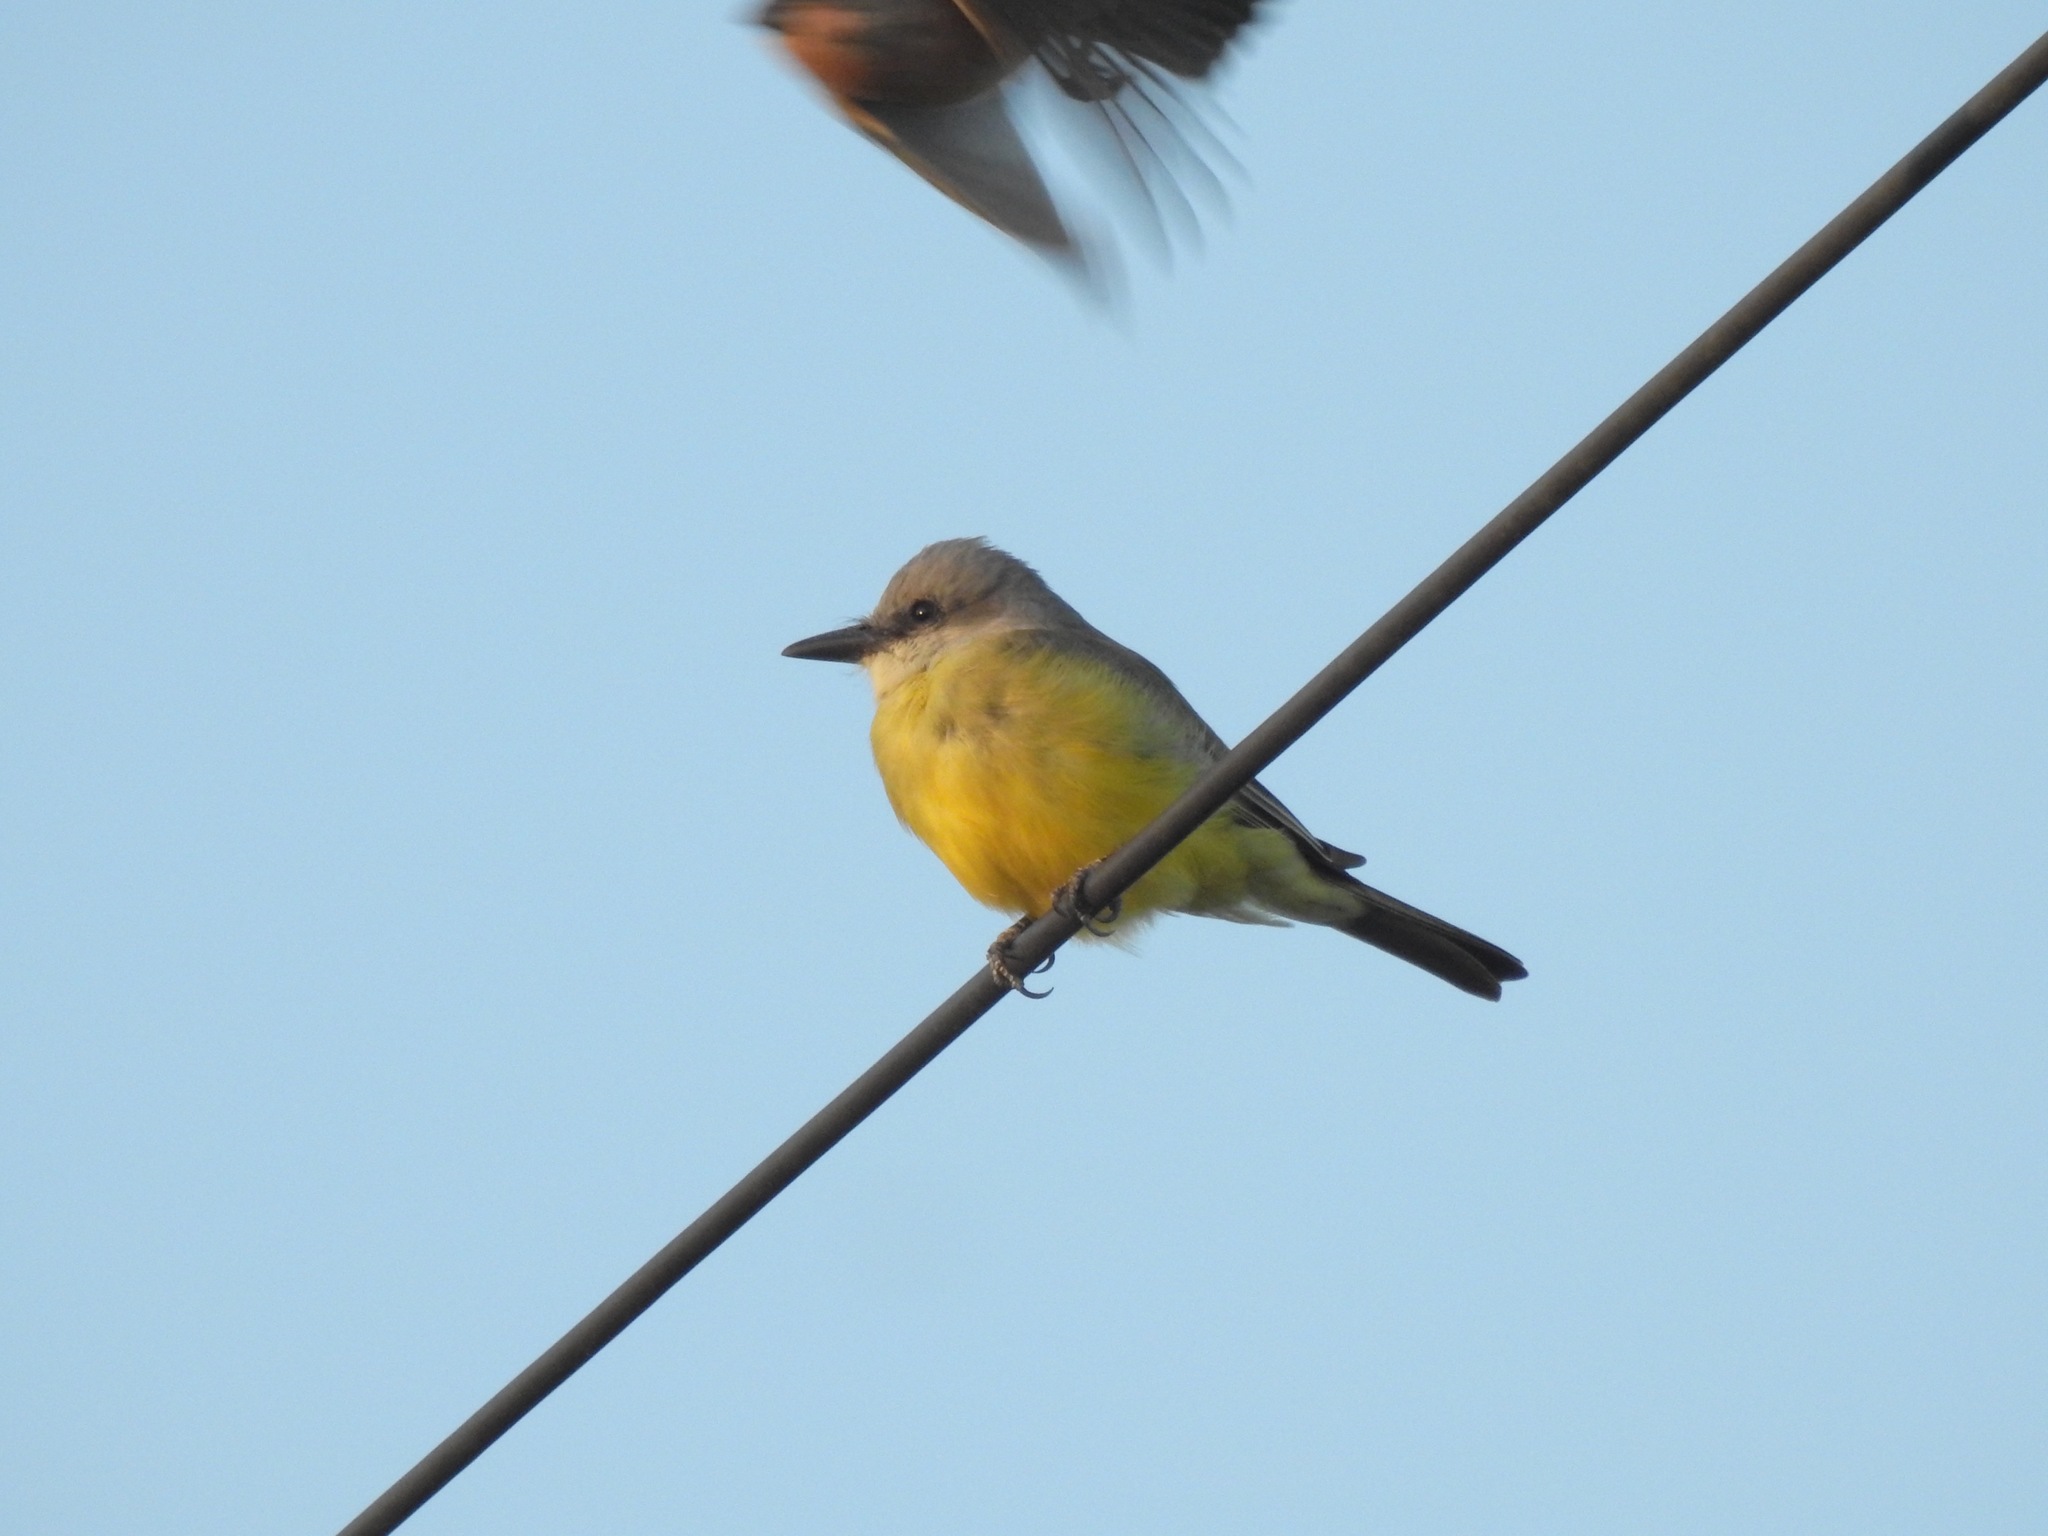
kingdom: Animalia
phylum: Chordata
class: Aves
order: Passeriformes
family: Tyrannidae
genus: Tyrannus
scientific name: Tyrannus melancholicus
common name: Tropical kingbird
